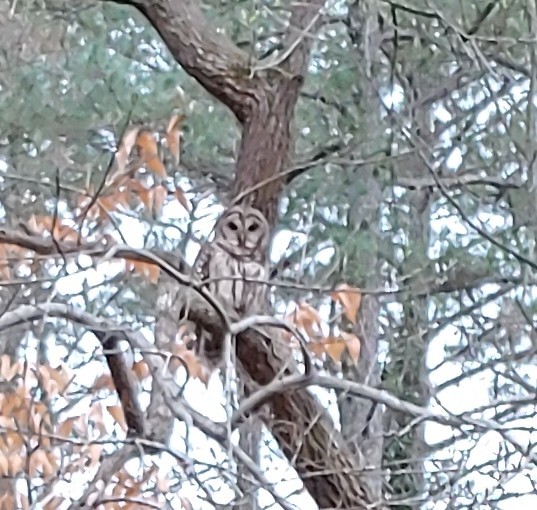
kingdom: Animalia
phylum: Chordata
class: Aves
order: Strigiformes
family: Strigidae
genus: Strix
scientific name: Strix varia
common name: Barred owl
